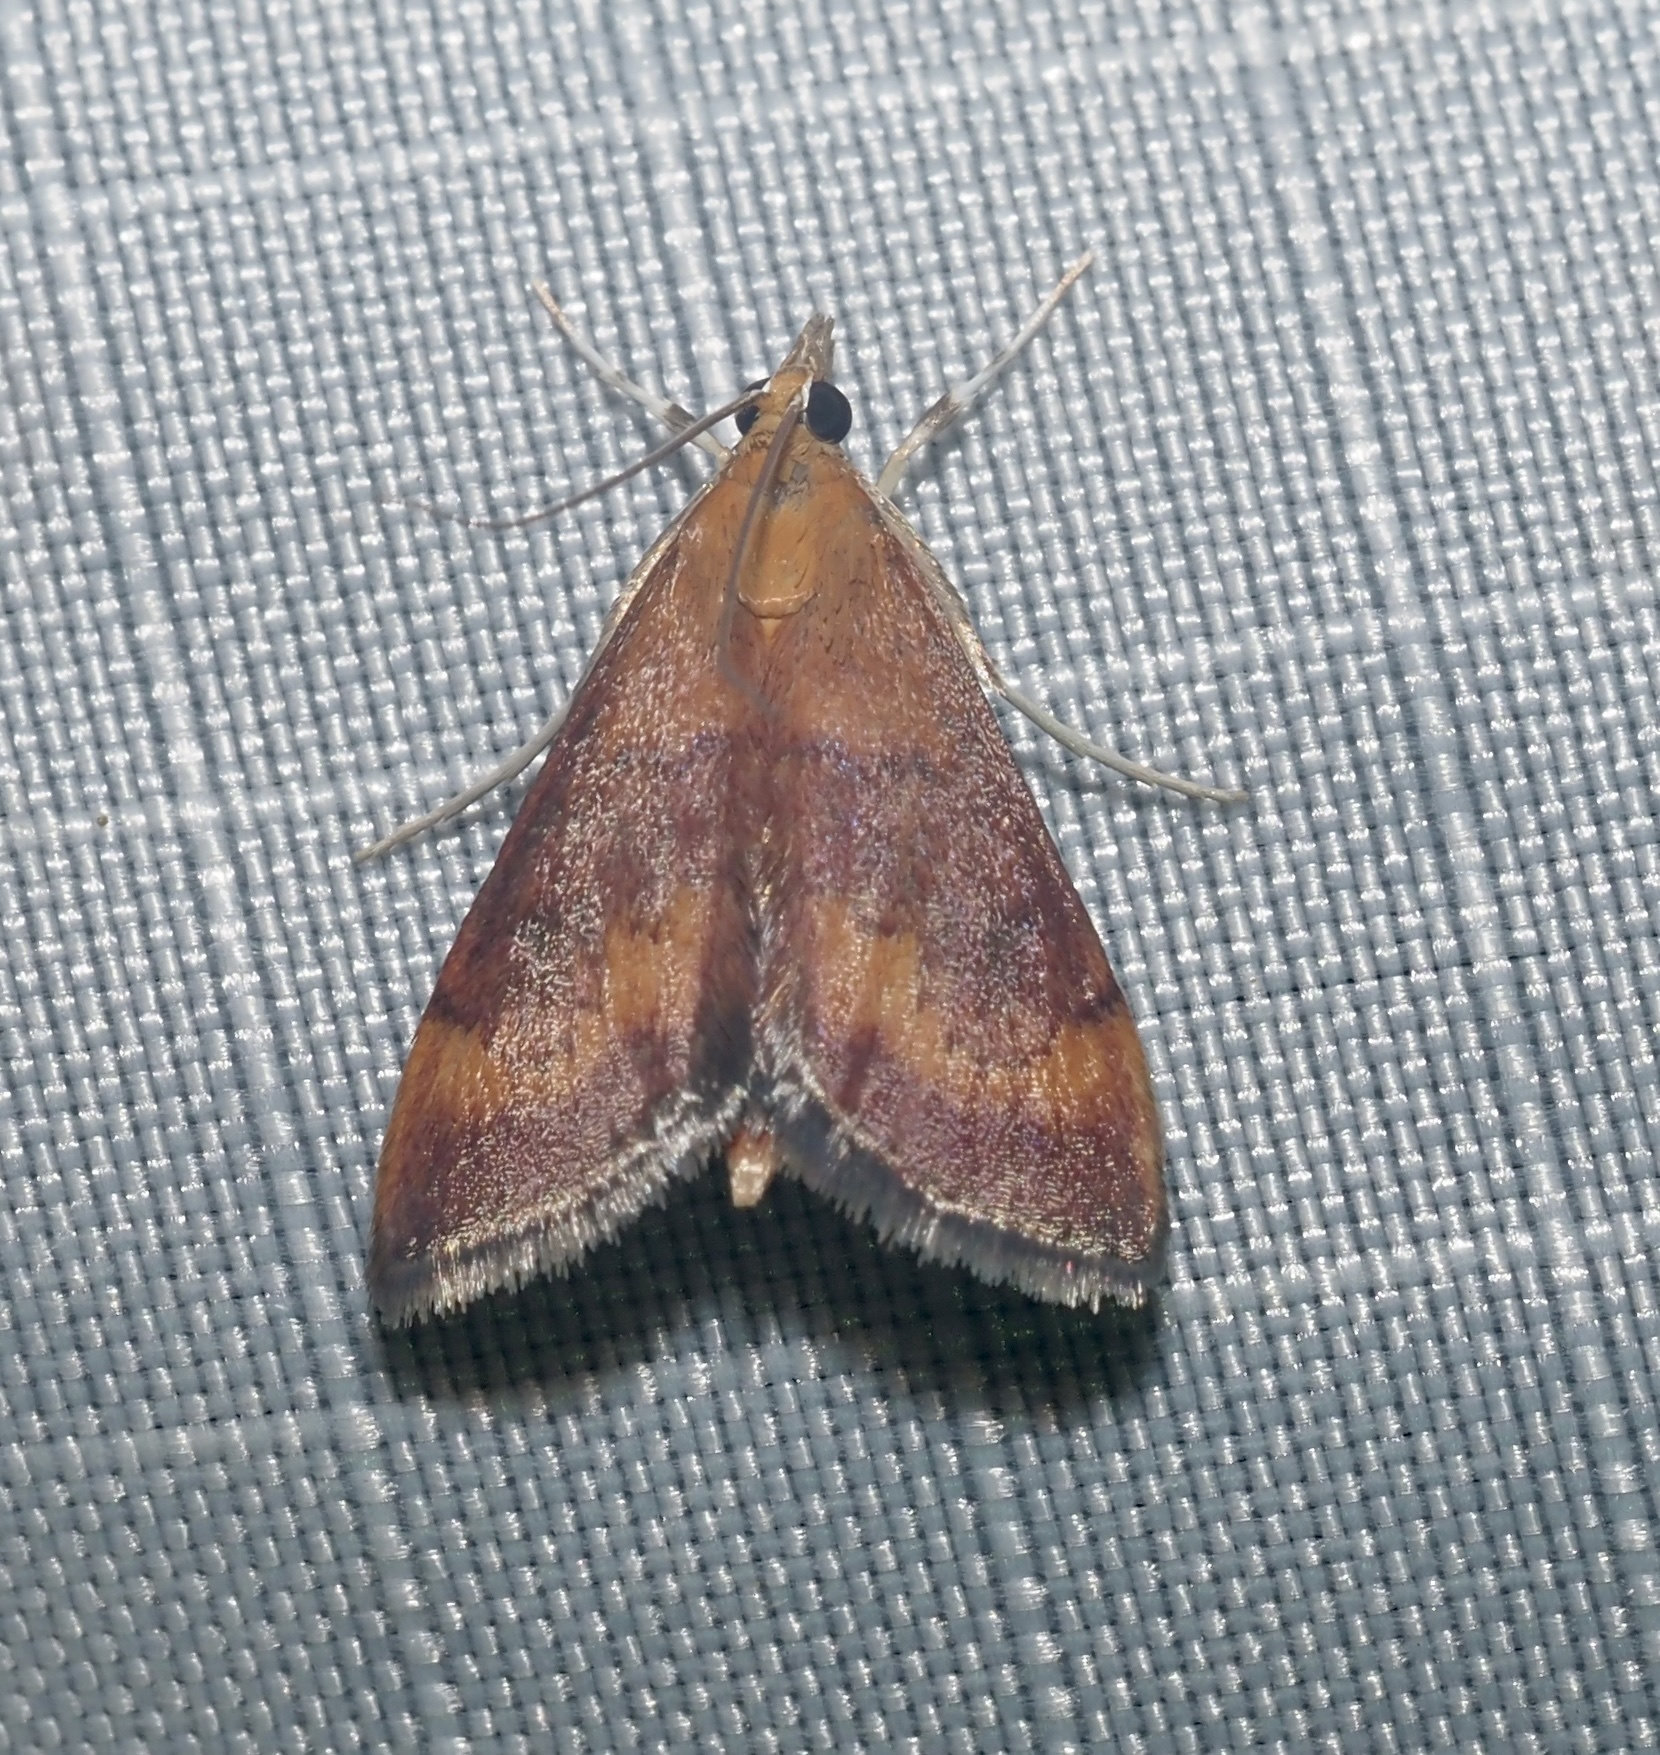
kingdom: Animalia
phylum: Arthropoda
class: Insecta
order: Lepidoptera
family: Crambidae
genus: Pyrausta
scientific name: Pyrausta rubricalis
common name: Variable reddish pyrausta
